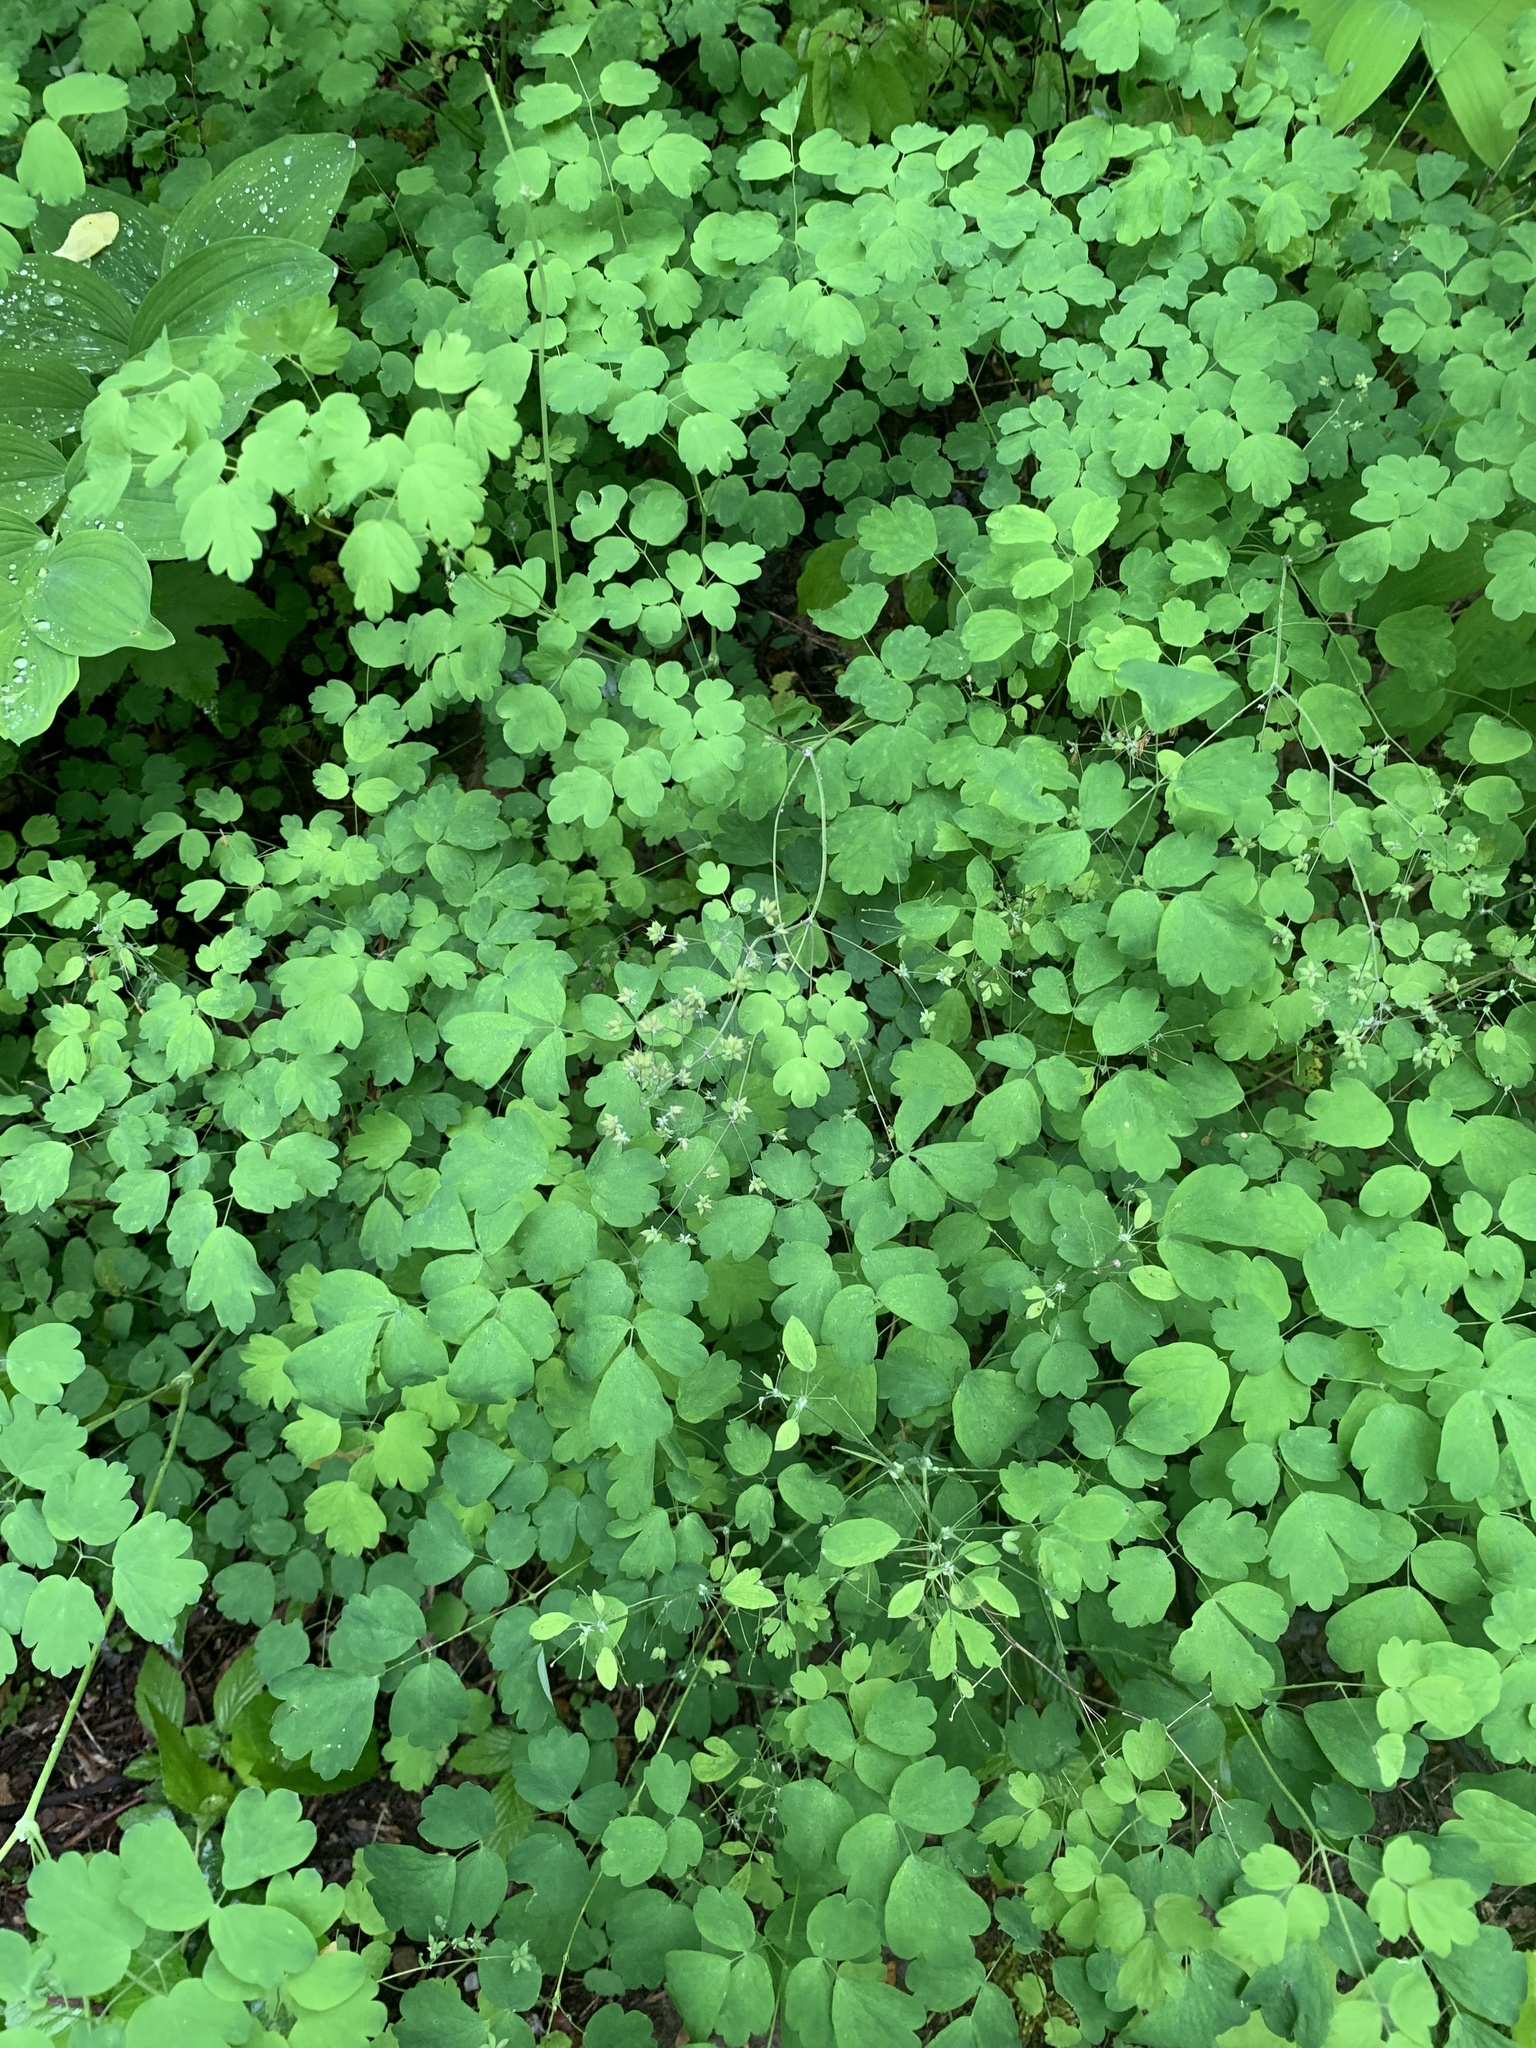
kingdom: Plantae
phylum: Tracheophyta
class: Magnoliopsida
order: Ranunculales
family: Ranunculaceae
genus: Thalictrum
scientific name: Thalictrum dioicum
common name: Early meadow-rue
